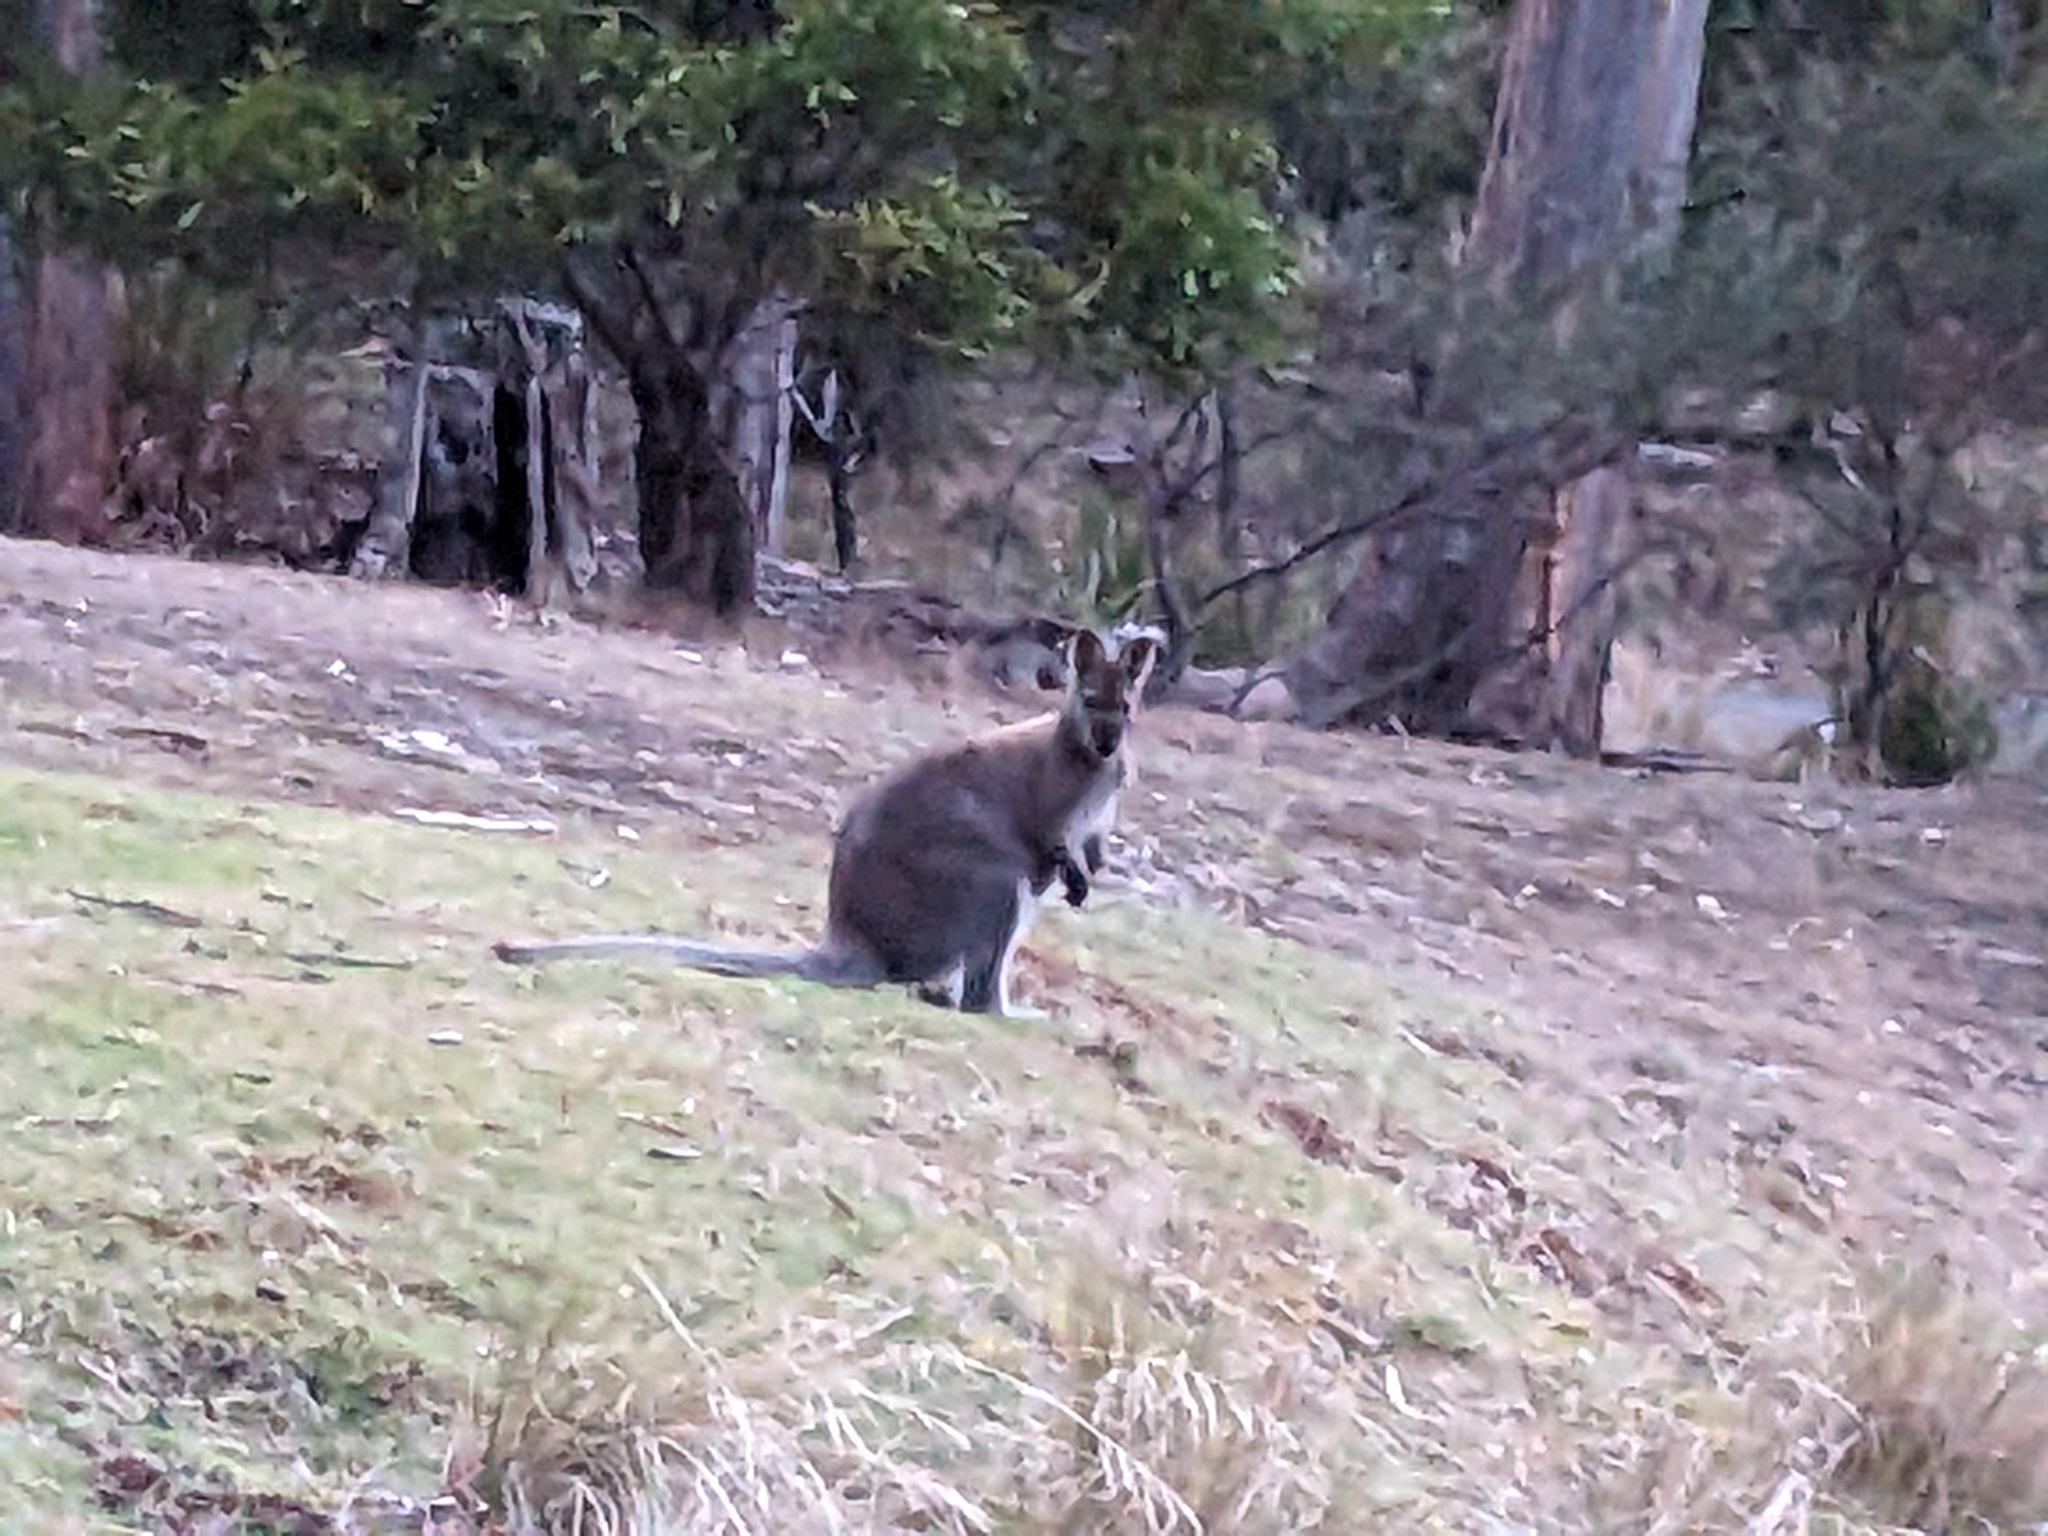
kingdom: Animalia
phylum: Chordata
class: Mammalia
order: Diprotodontia
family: Macropodidae
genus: Notamacropus
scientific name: Notamacropus rufogriseus
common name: Red-necked wallaby
